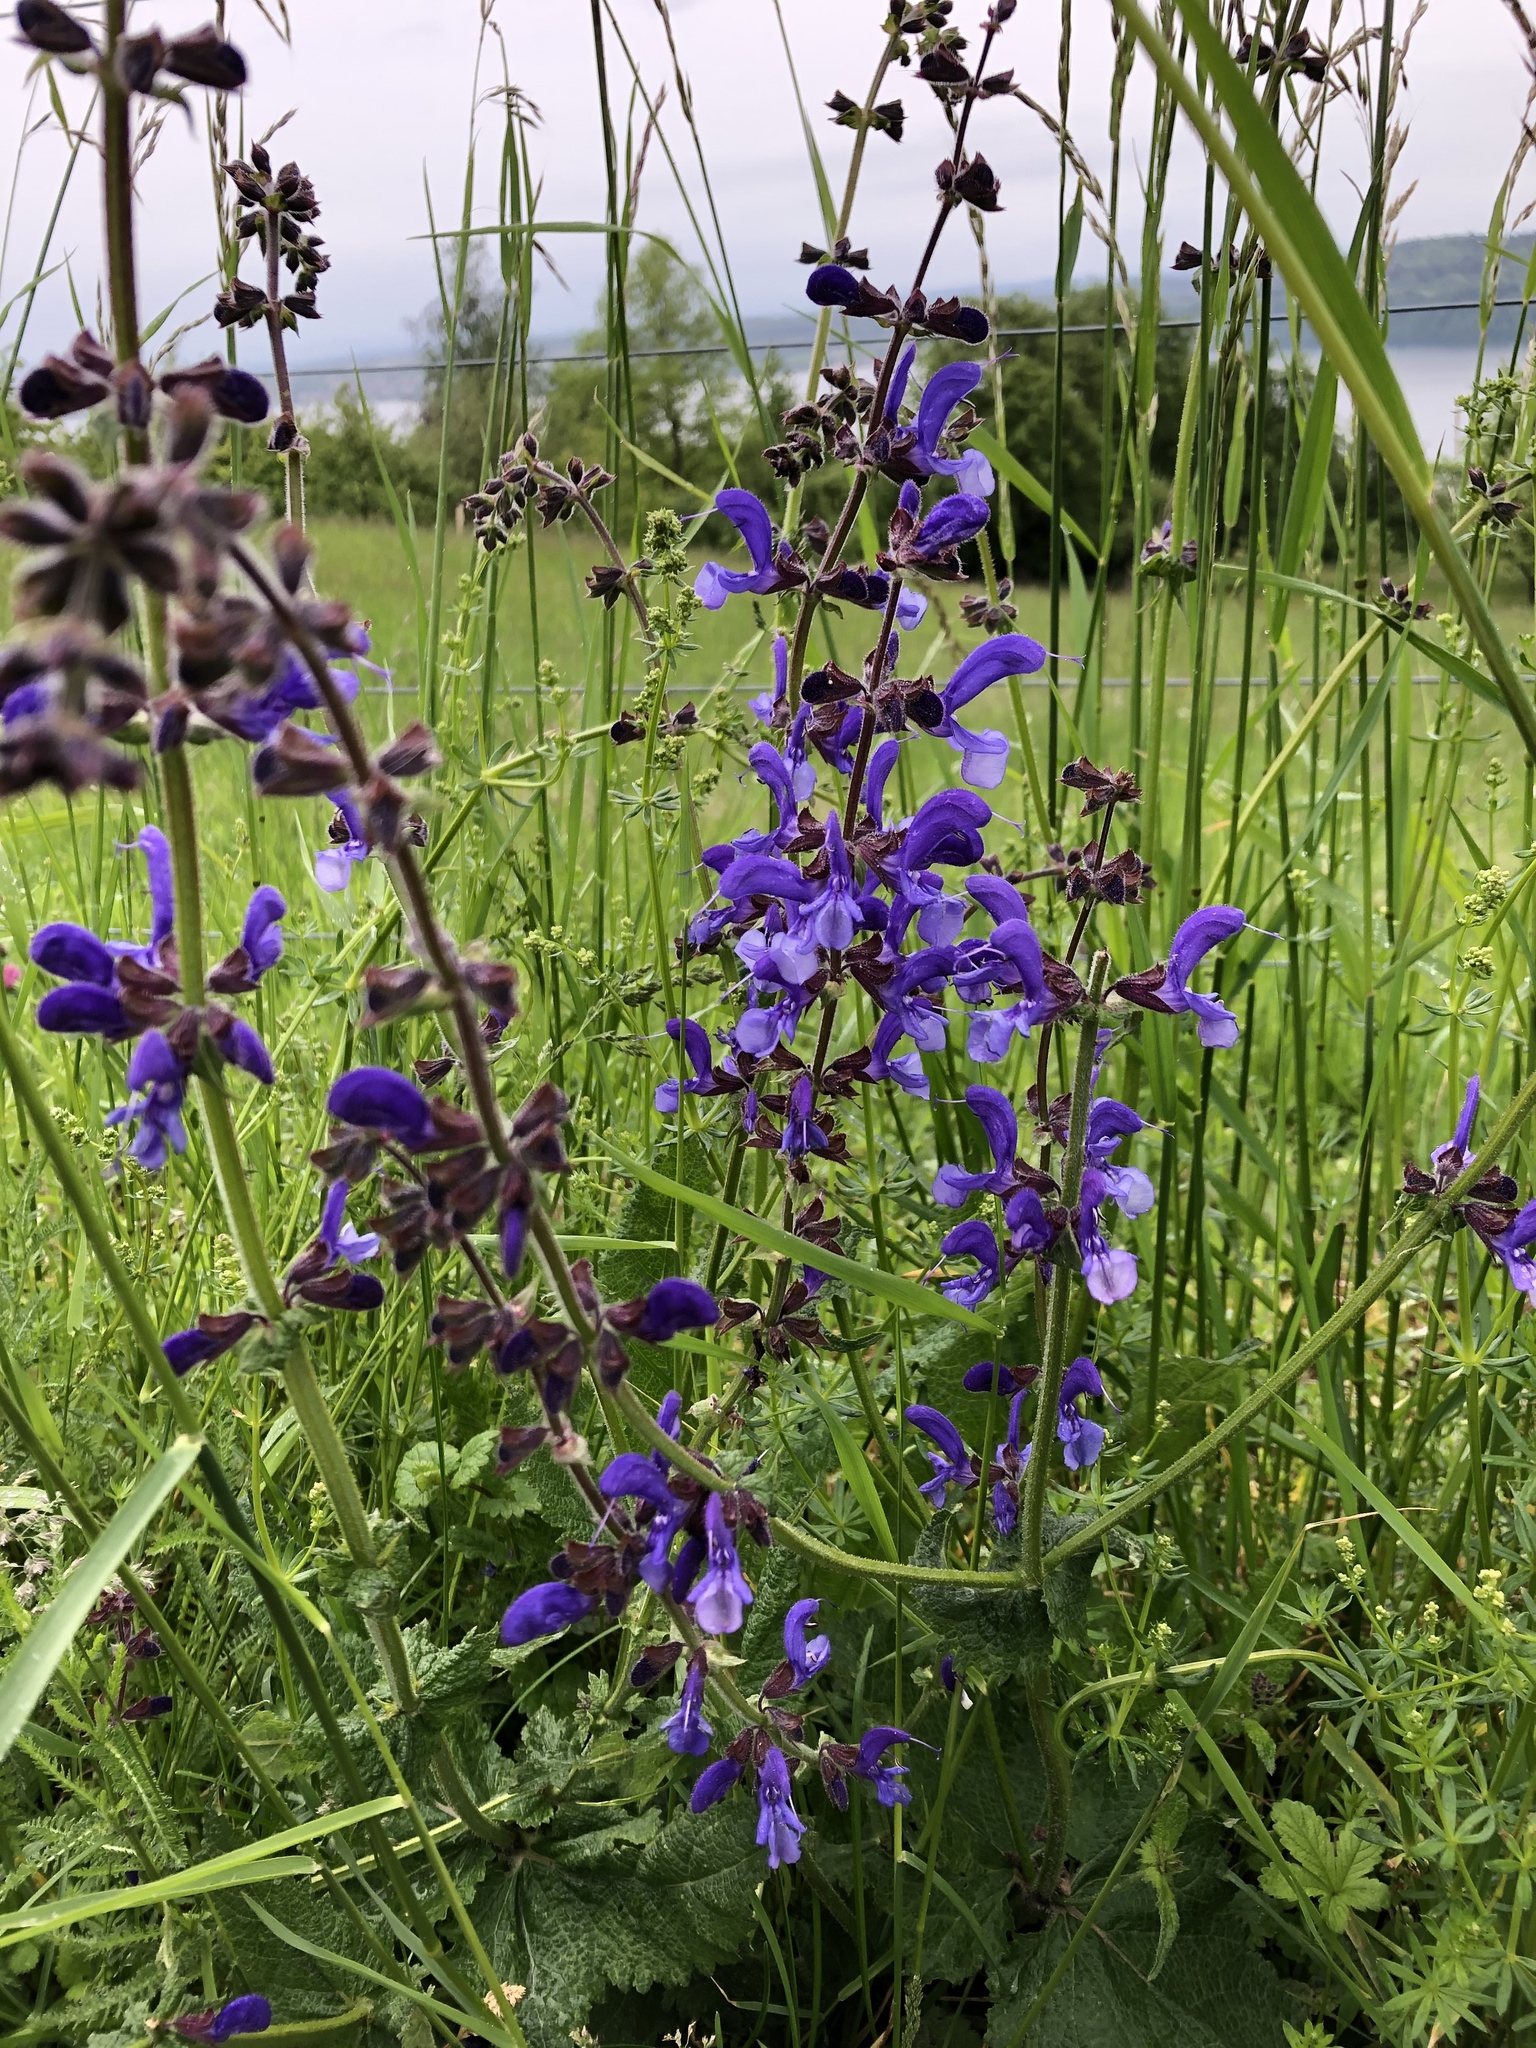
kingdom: Plantae
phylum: Tracheophyta
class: Magnoliopsida
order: Lamiales
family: Lamiaceae
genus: Salvia
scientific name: Salvia pratensis
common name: Meadow sage
